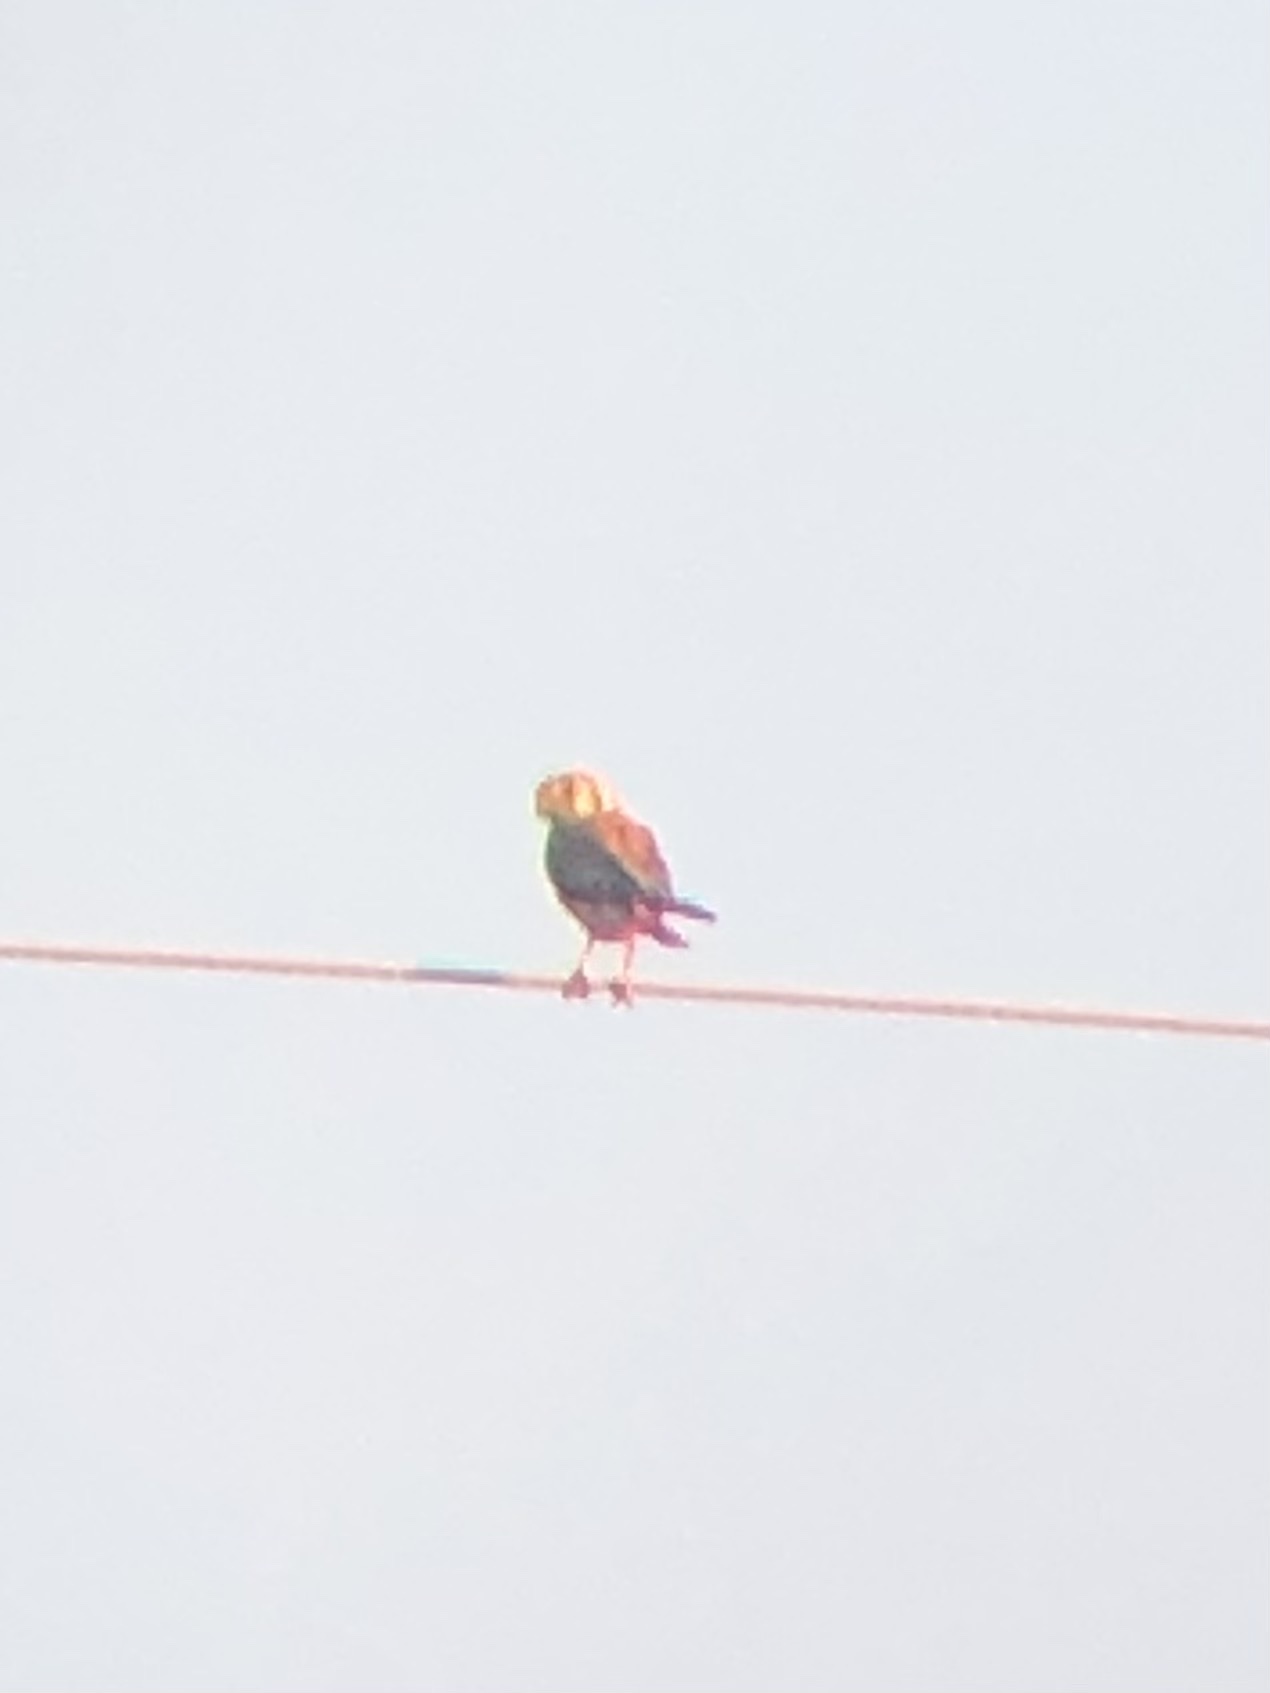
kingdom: Animalia
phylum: Chordata
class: Aves
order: Falconiformes
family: Falconidae
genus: Falco
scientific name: Falco sparverius
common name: American kestrel
